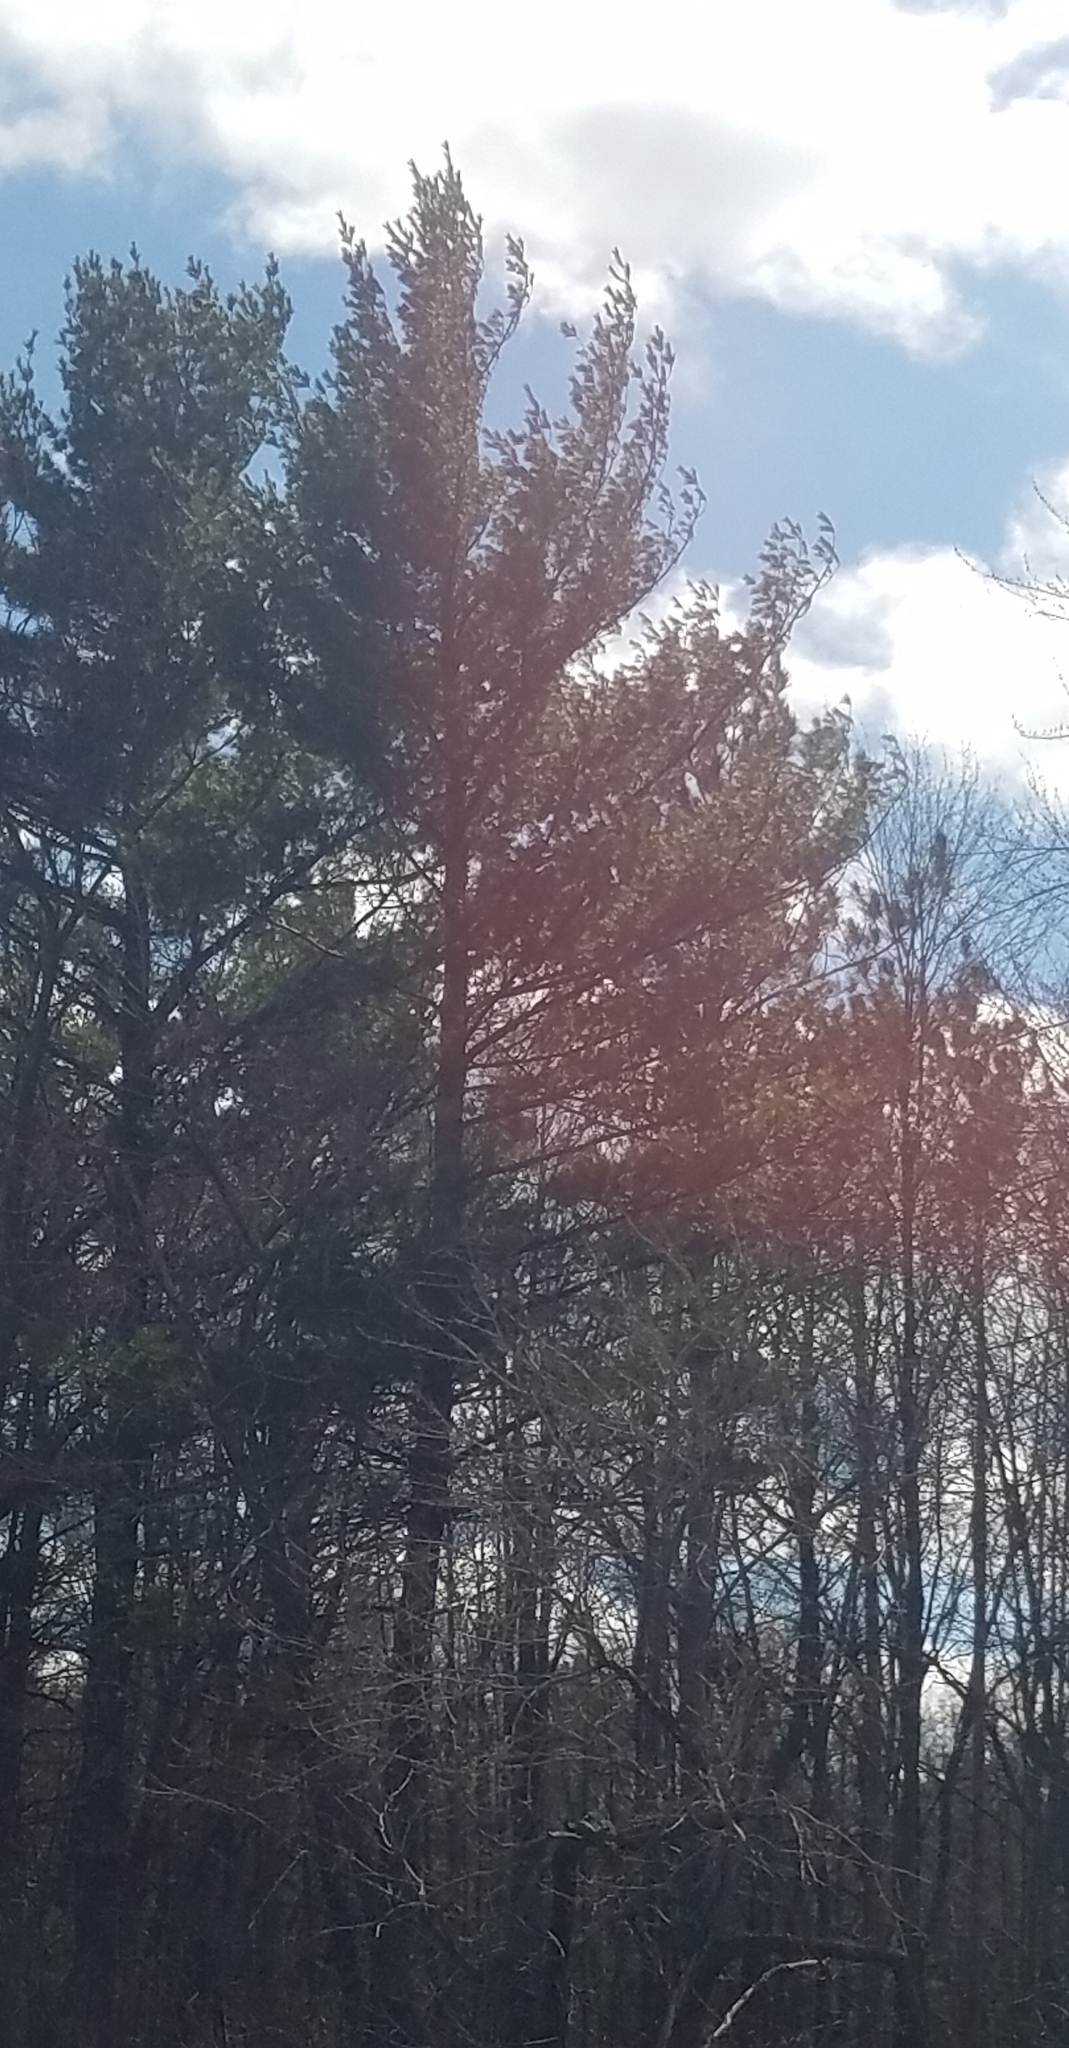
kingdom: Plantae
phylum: Tracheophyta
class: Pinopsida
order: Pinales
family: Pinaceae
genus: Pinus
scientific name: Pinus strobus
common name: Weymouth pine
